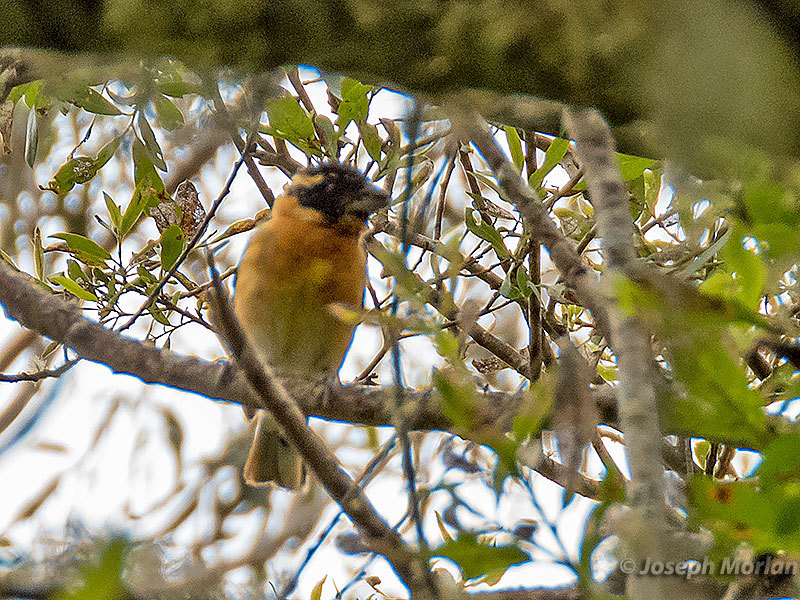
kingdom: Animalia
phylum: Chordata
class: Aves
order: Passeriformes
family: Cardinalidae
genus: Pheucticus
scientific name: Pheucticus melanocephalus
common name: Black-headed grosbeak
